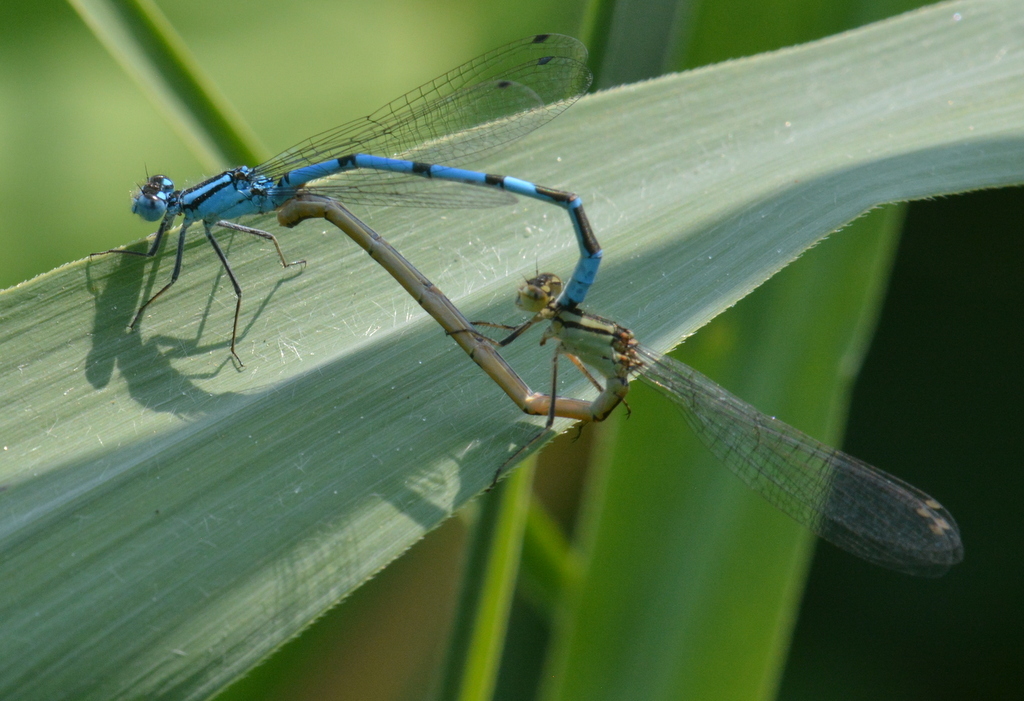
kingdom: Animalia
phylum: Arthropoda
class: Insecta
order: Odonata
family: Coenagrionidae
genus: Enallagma
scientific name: Enallagma cyathigerum
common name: Common blue damselfly
